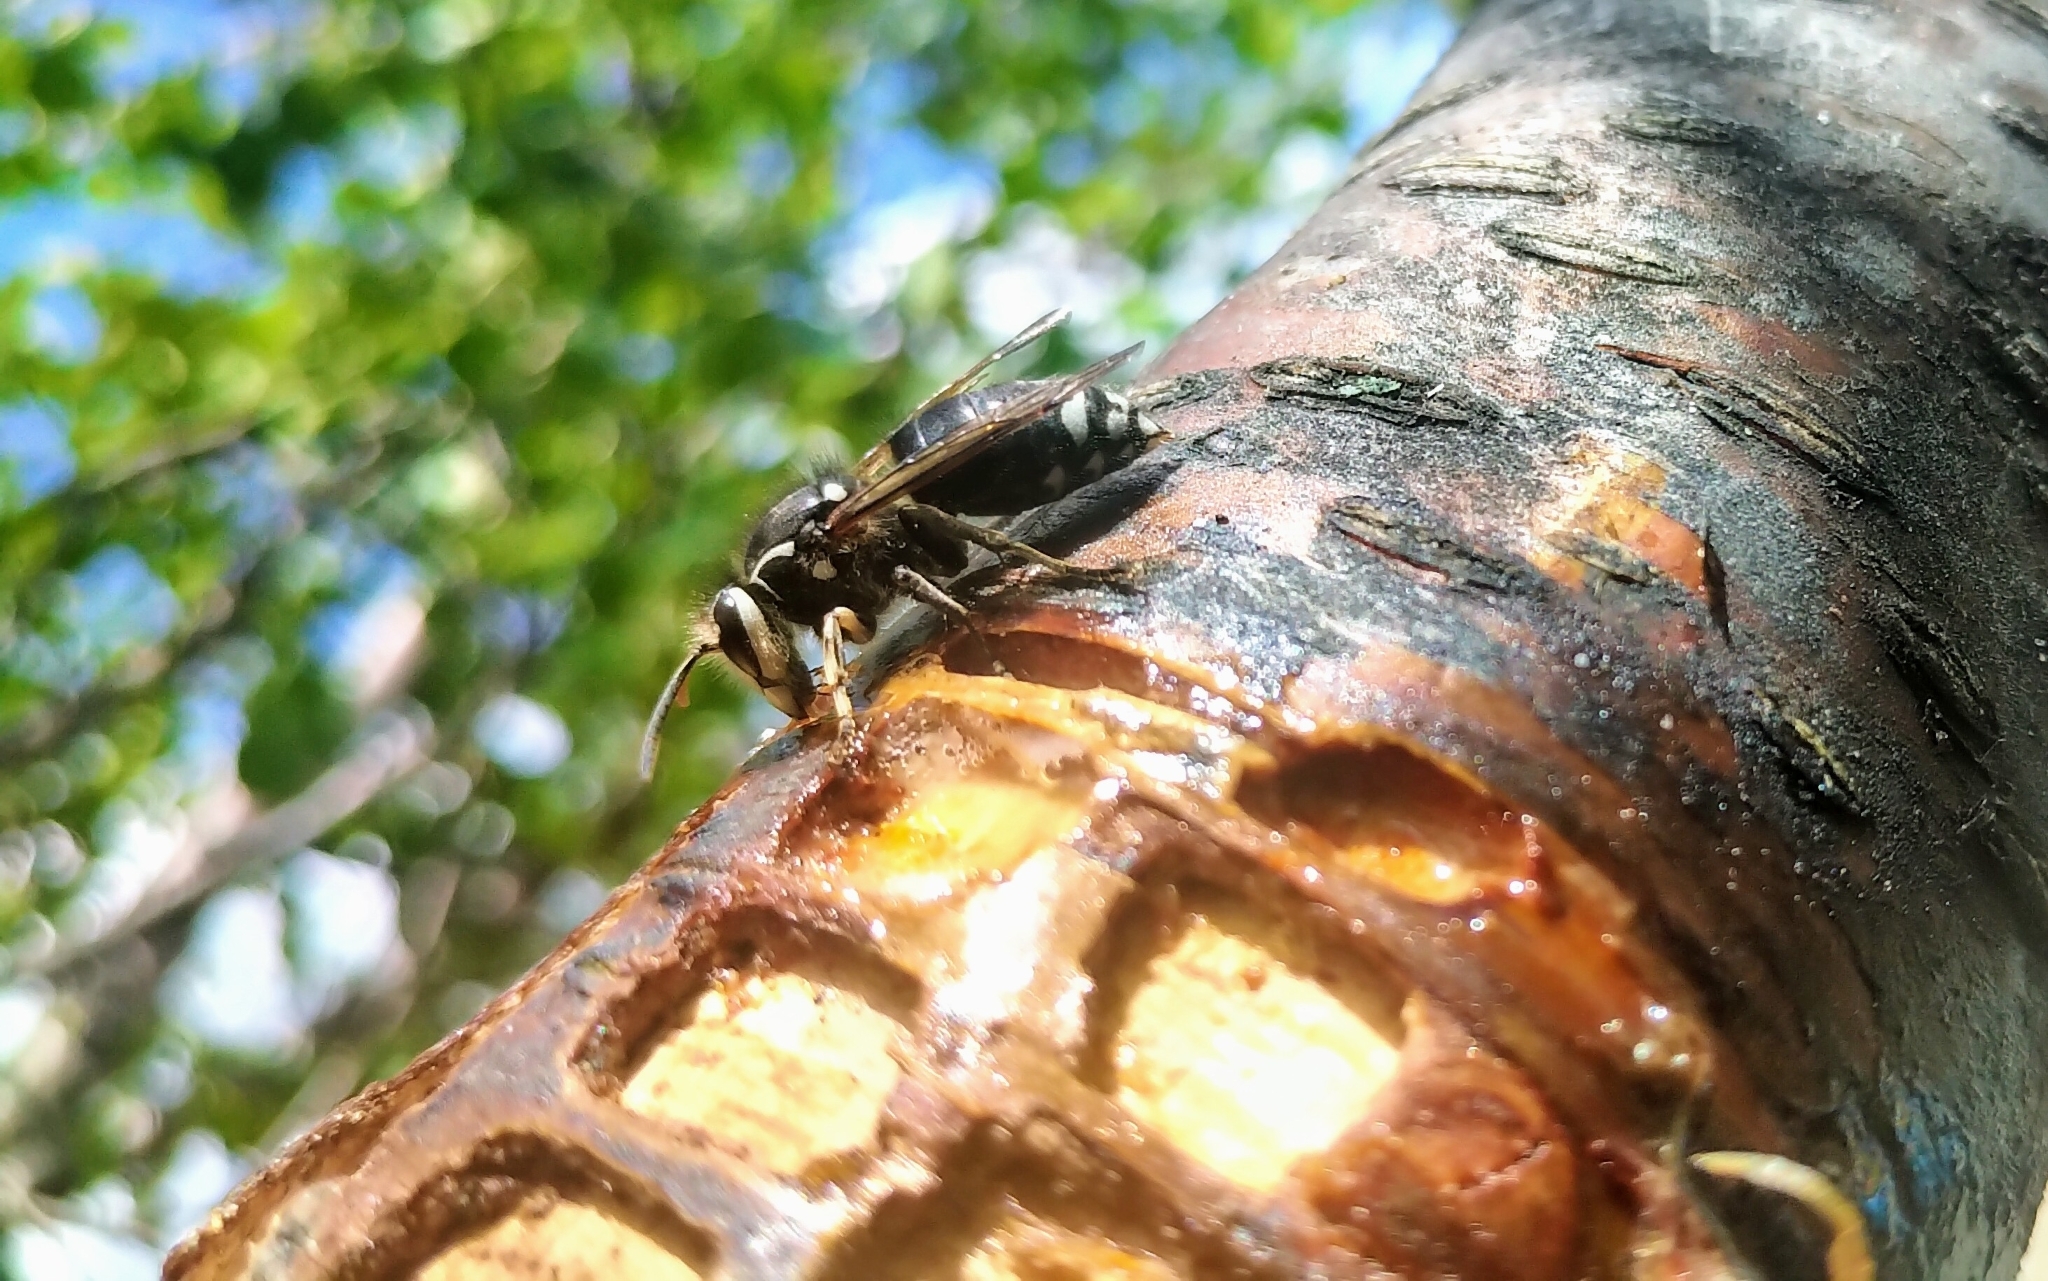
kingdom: Animalia
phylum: Arthropoda
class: Insecta
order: Hymenoptera
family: Vespidae
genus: Dolichovespula
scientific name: Dolichovespula maculata
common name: Bald-faced hornet
